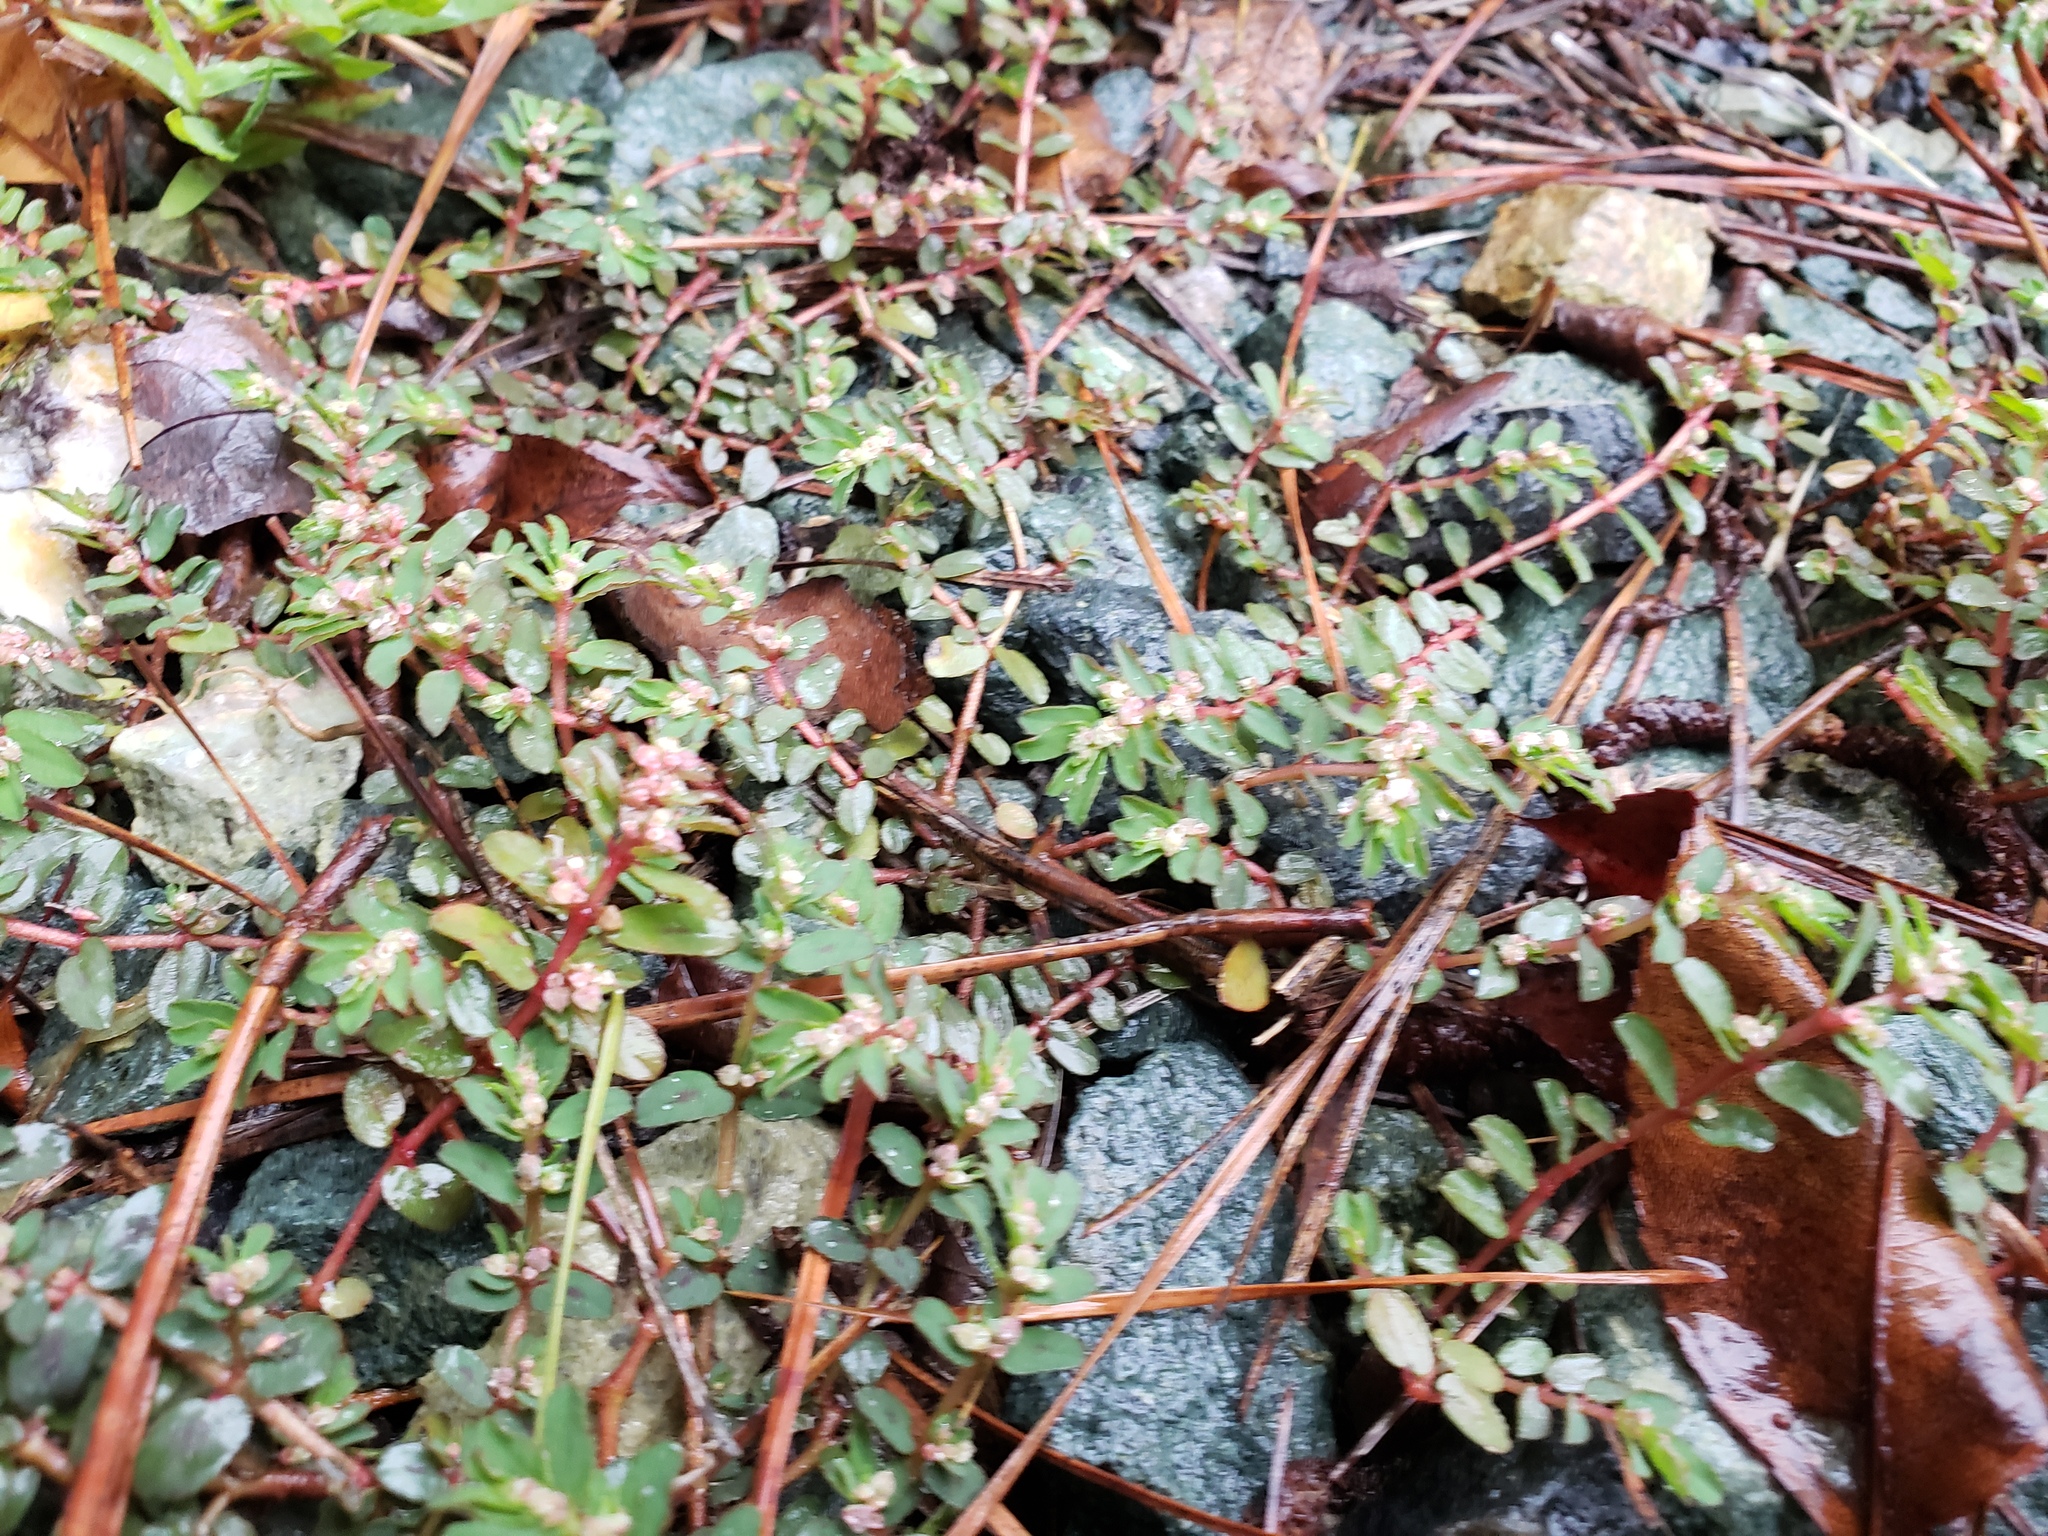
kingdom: Plantae
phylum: Tracheophyta
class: Magnoliopsida
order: Malpighiales
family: Euphorbiaceae
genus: Euphorbia
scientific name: Euphorbia maculata
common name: Spotted spurge
